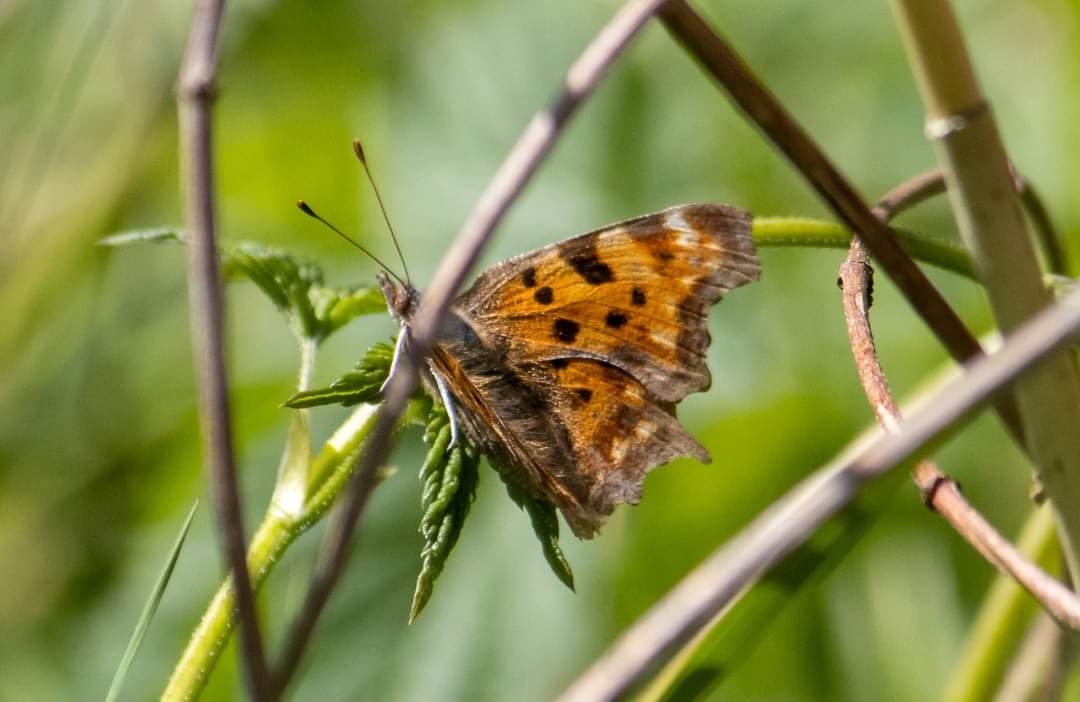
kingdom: Animalia
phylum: Arthropoda
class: Insecta
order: Lepidoptera
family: Nymphalidae
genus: Polygonia
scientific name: Polygonia c-album
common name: Comma
